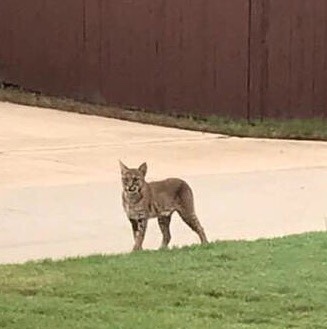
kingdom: Animalia
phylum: Chordata
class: Mammalia
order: Carnivora
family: Felidae
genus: Lynx
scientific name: Lynx rufus
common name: Bobcat
